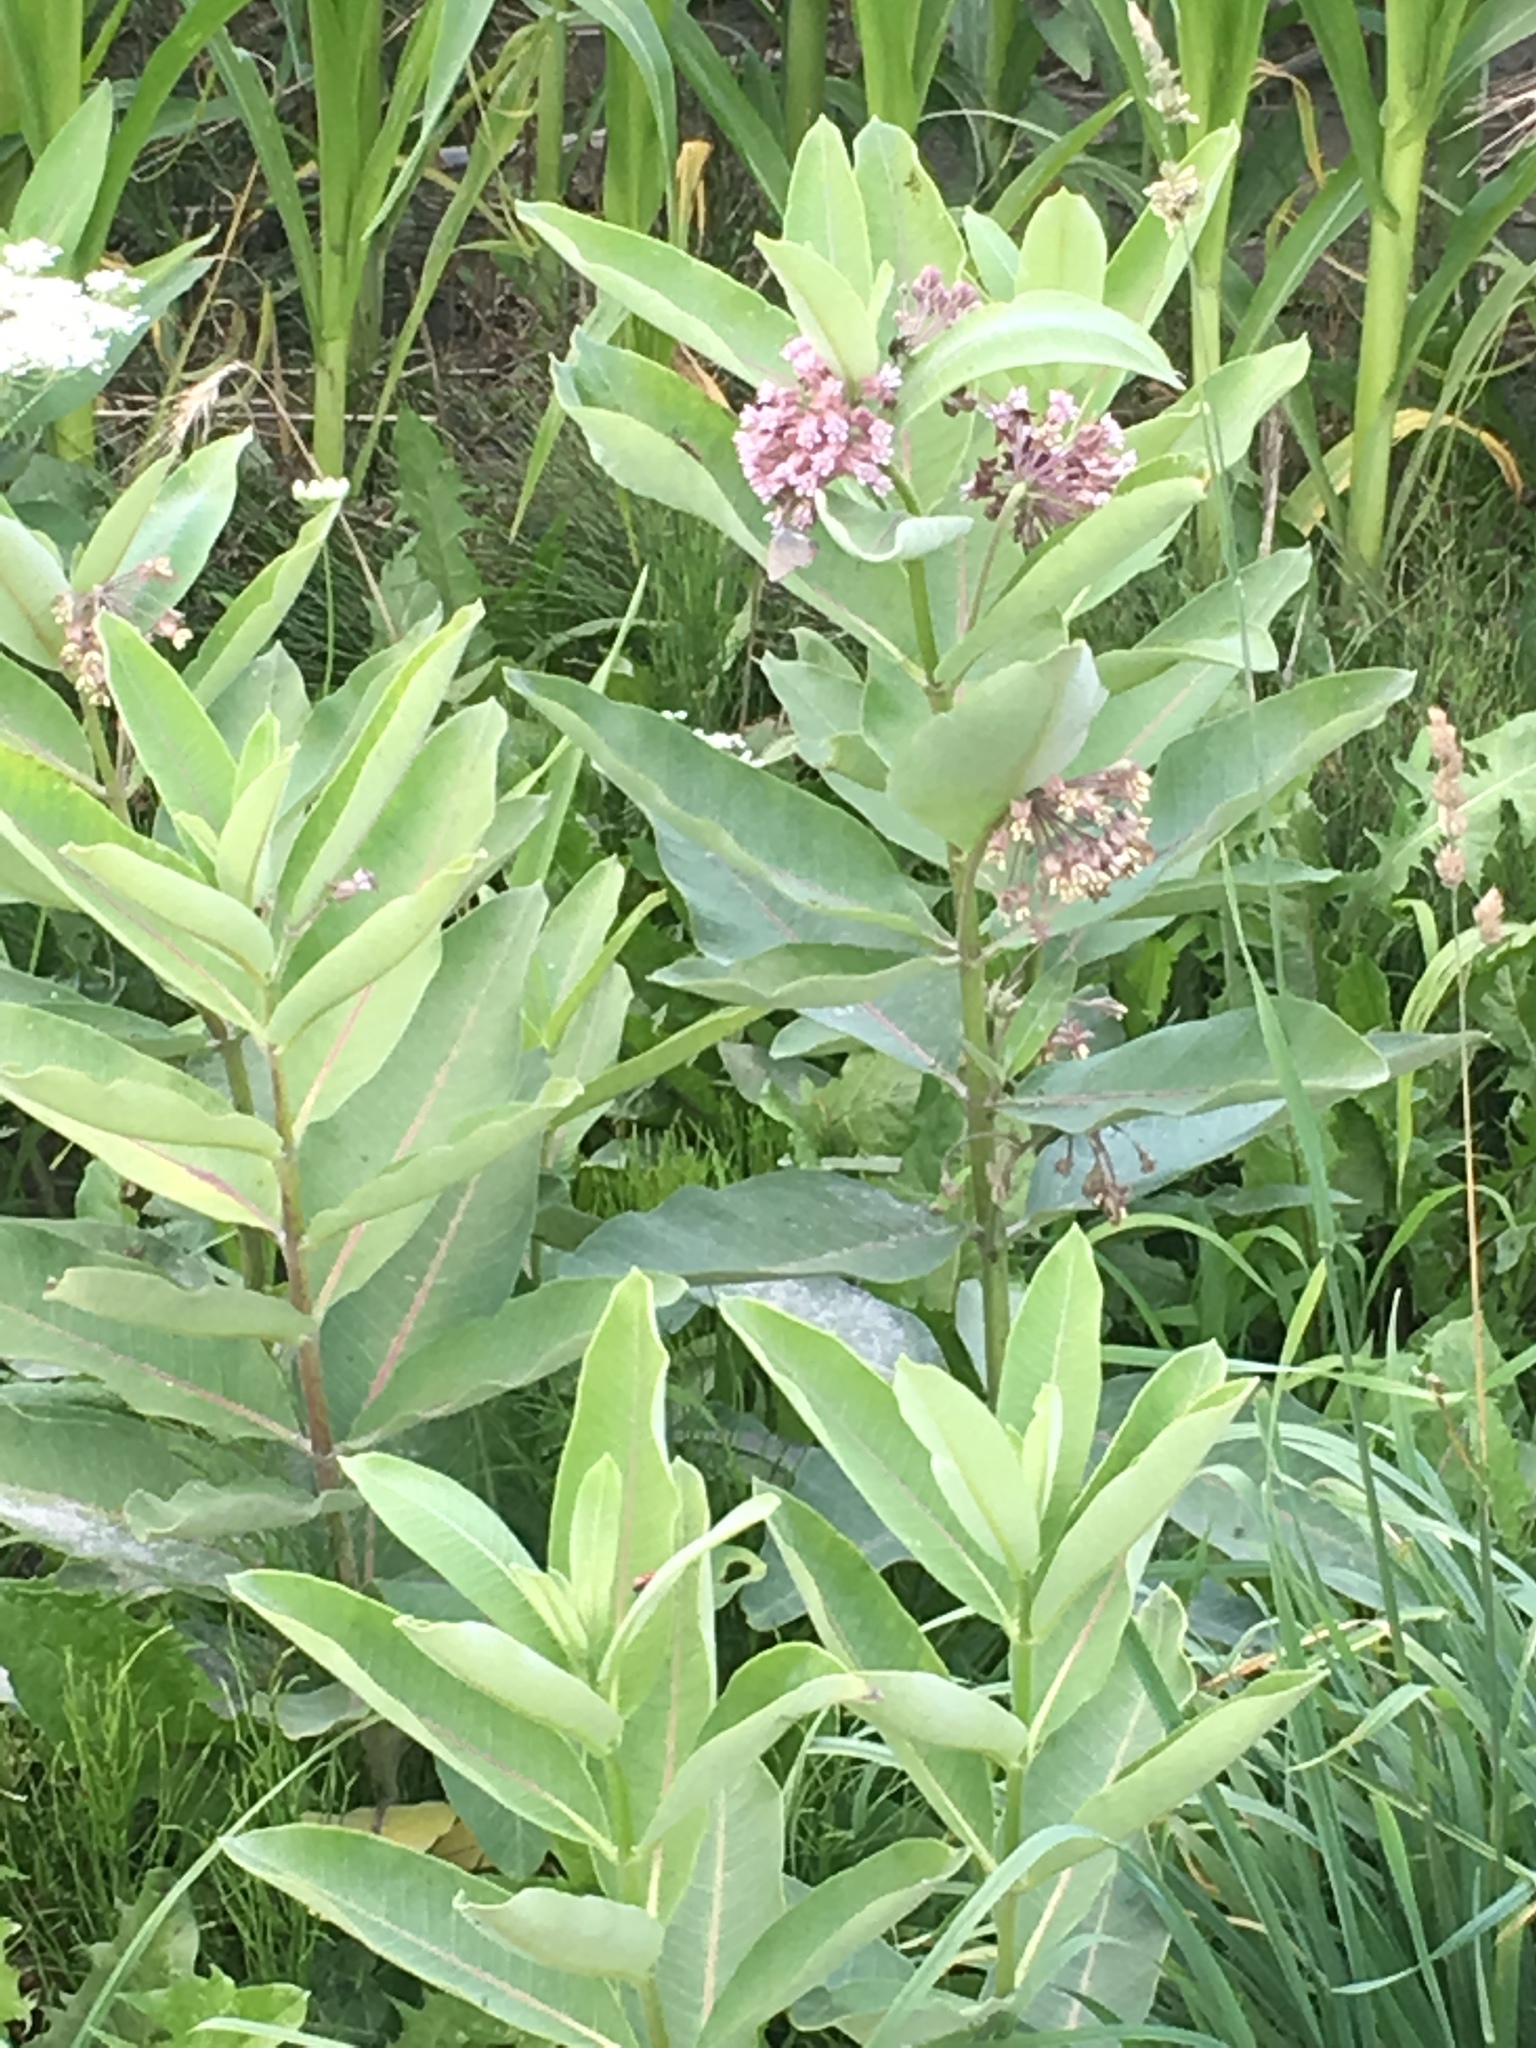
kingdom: Plantae
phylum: Tracheophyta
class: Magnoliopsida
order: Gentianales
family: Apocynaceae
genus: Asclepias
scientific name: Asclepias syriaca
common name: Common milkweed
